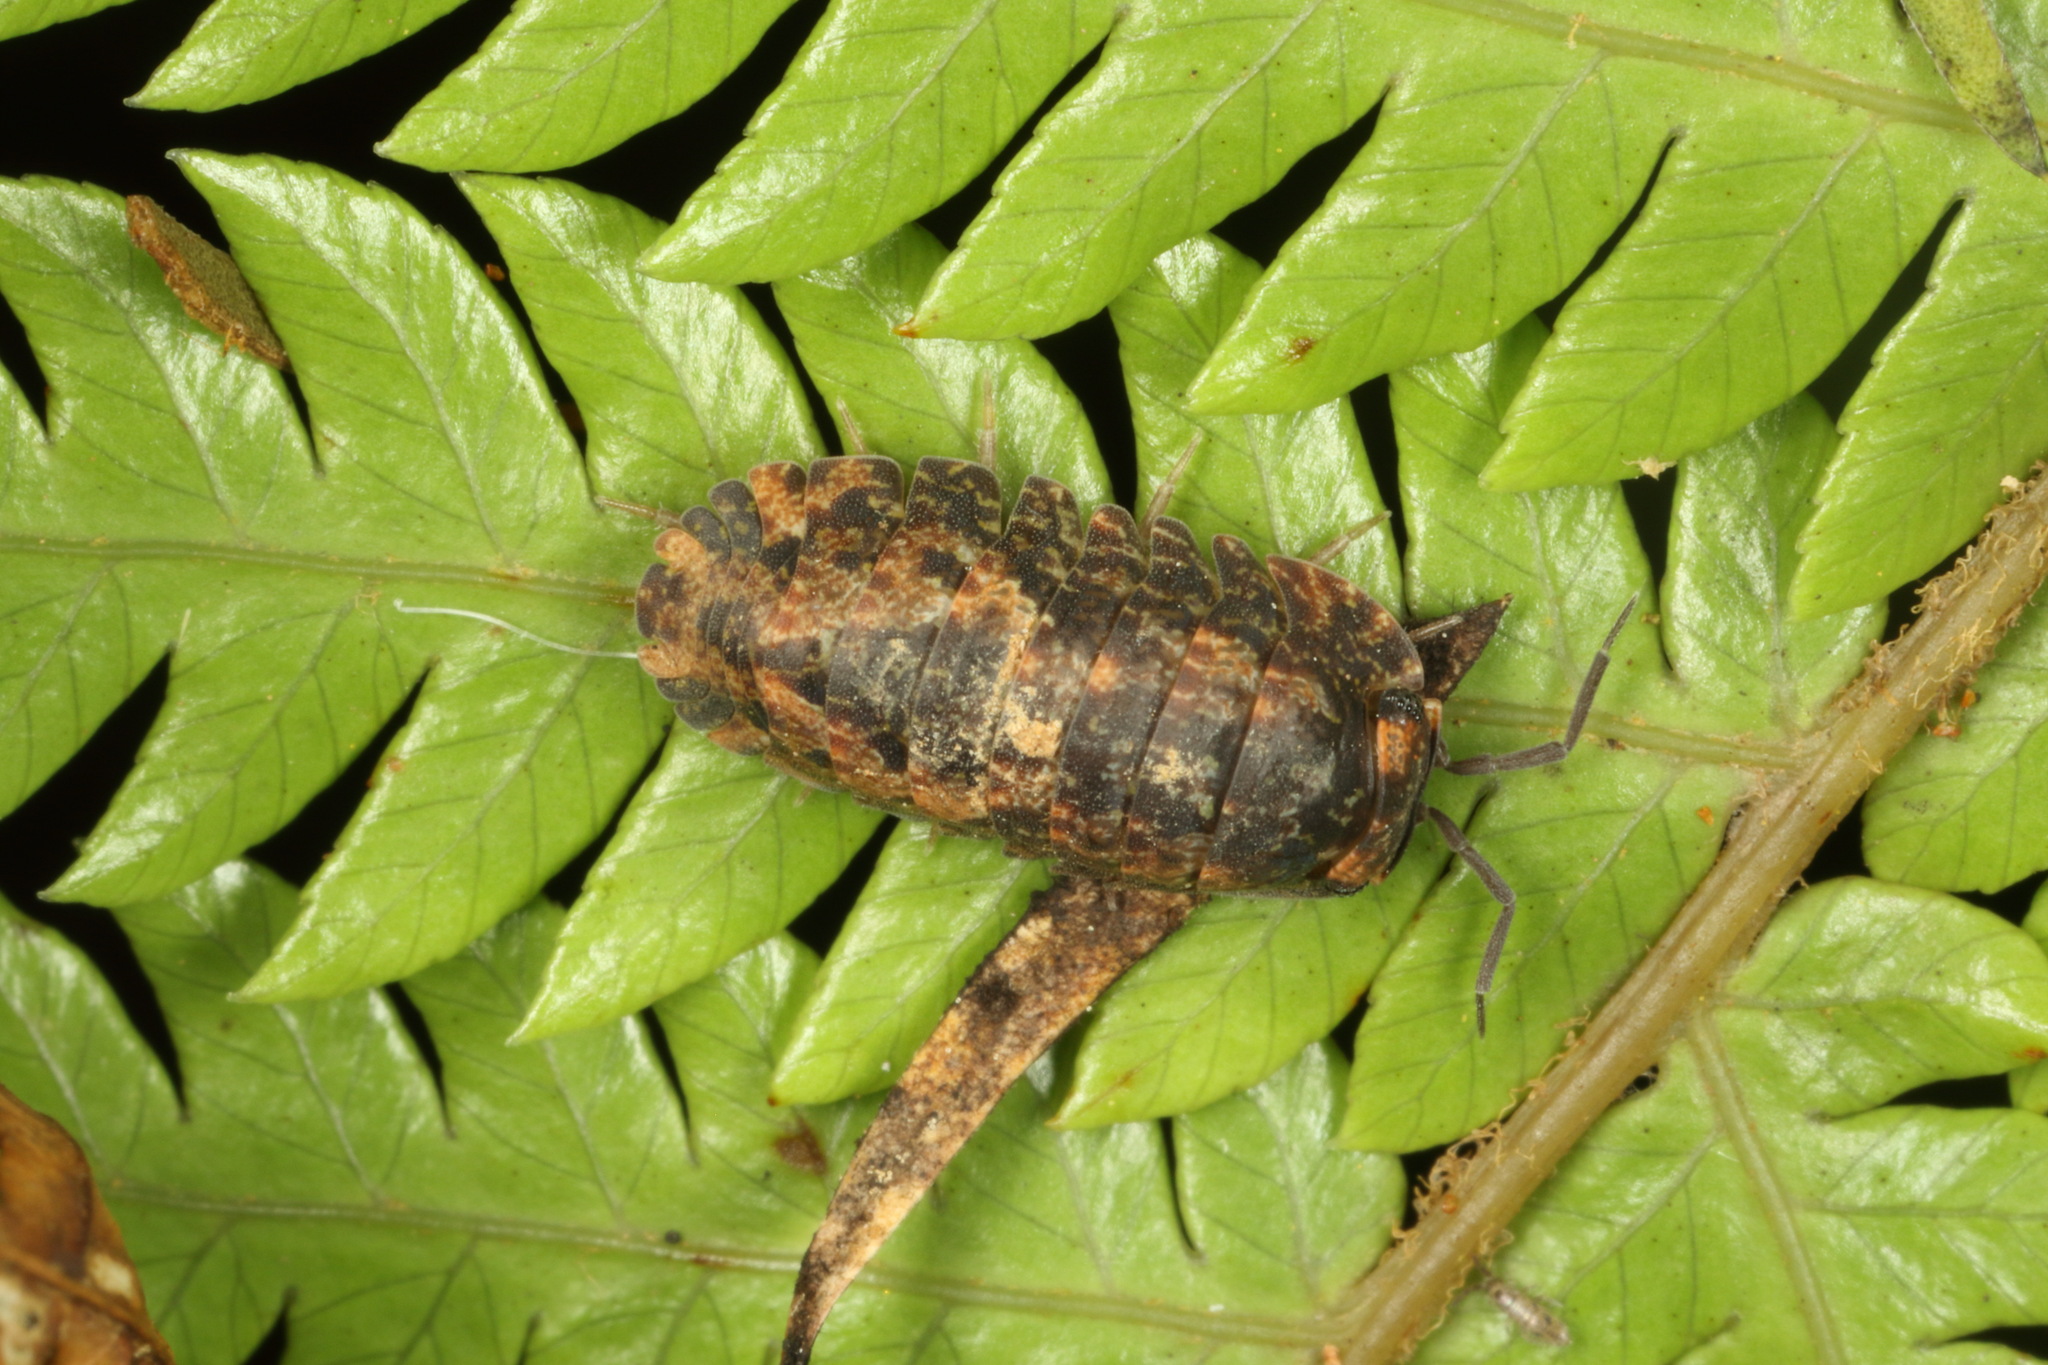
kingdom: Animalia
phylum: Arthropoda
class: Malacostraca
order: Isopoda
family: Armadillidae
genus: Cubaris
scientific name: Cubaris tarangensis
